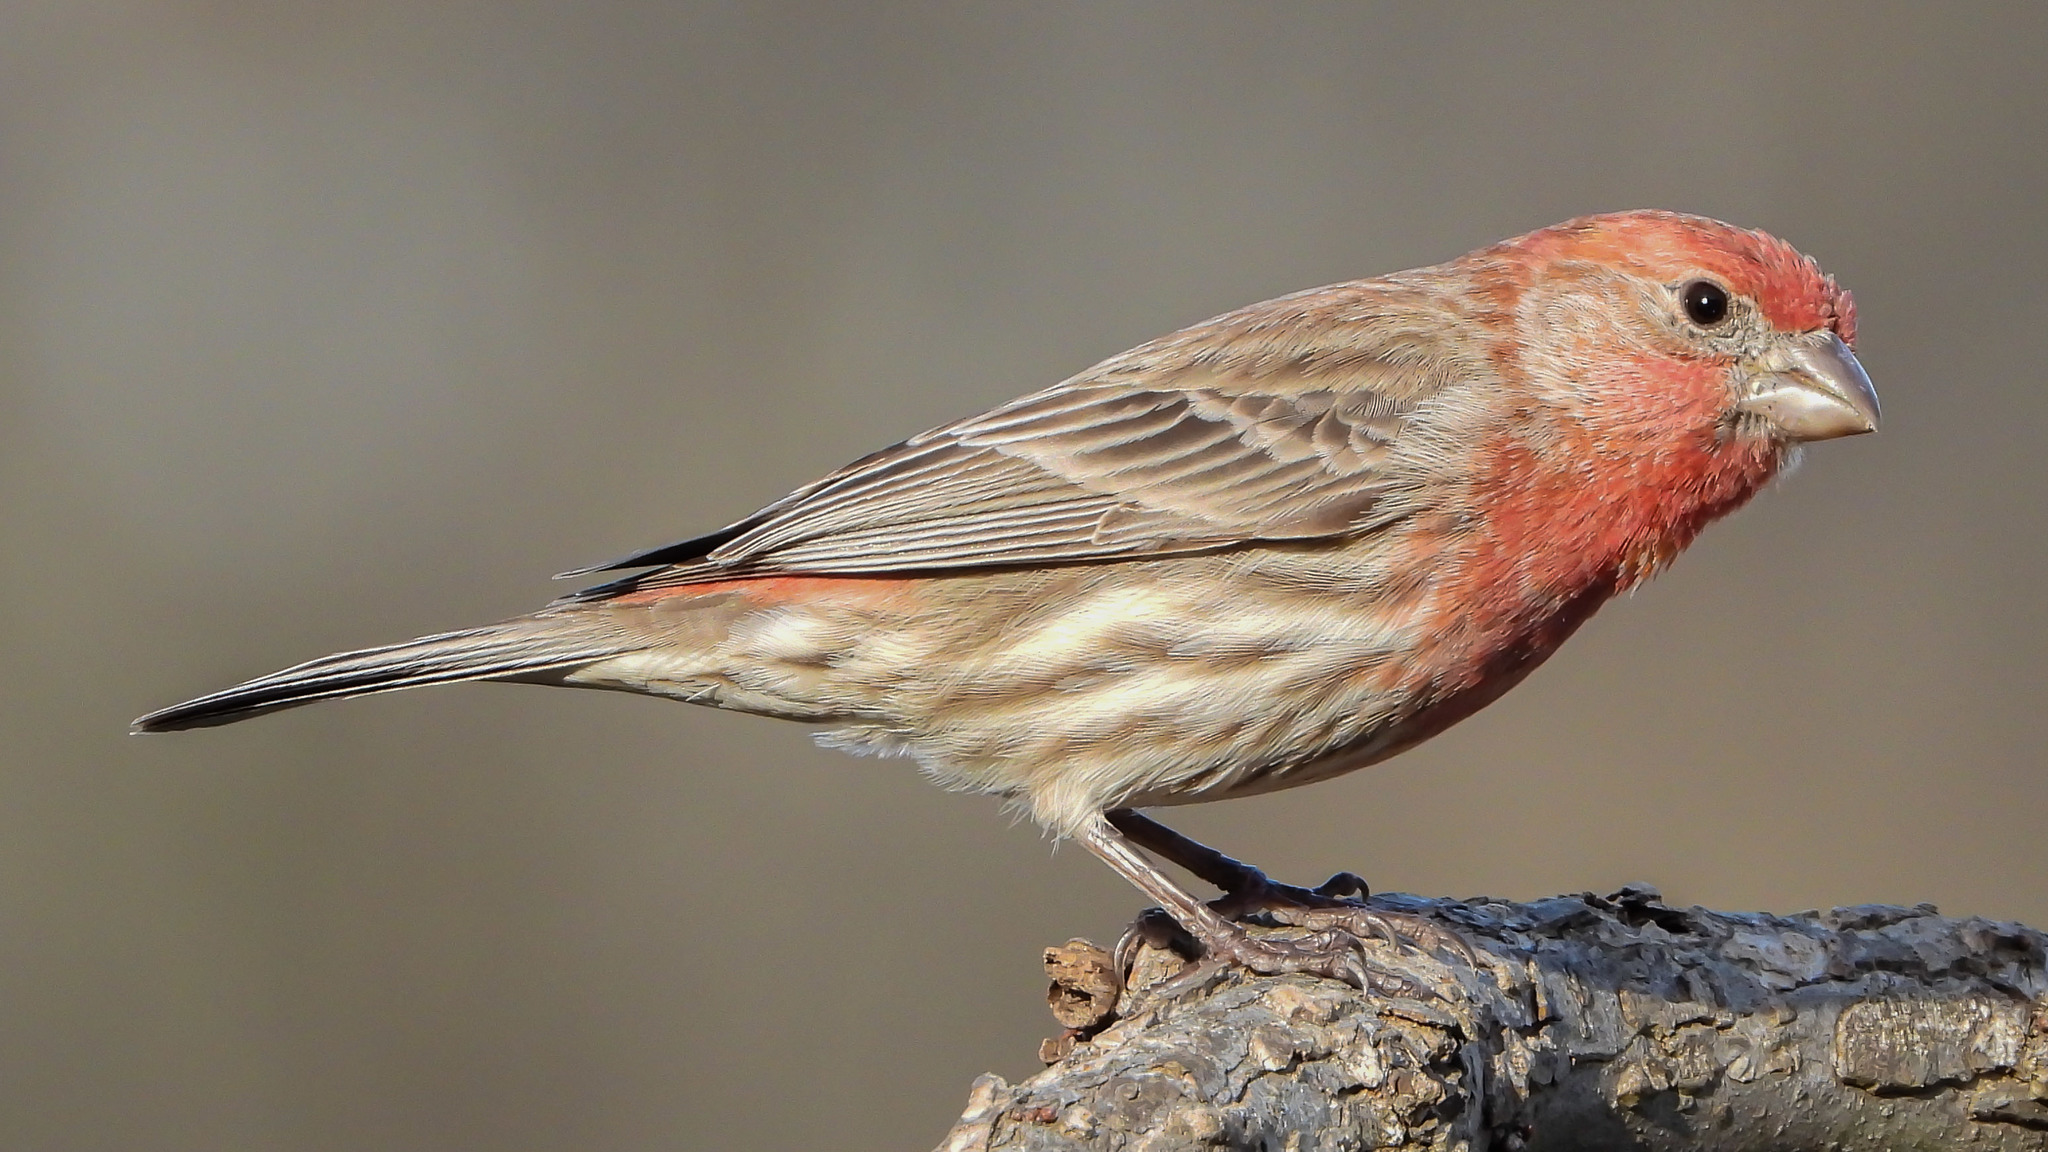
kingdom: Animalia
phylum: Chordata
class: Aves
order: Passeriformes
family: Fringillidae
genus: Haemorhous
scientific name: Haemorhous mexicanus
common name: House finch
